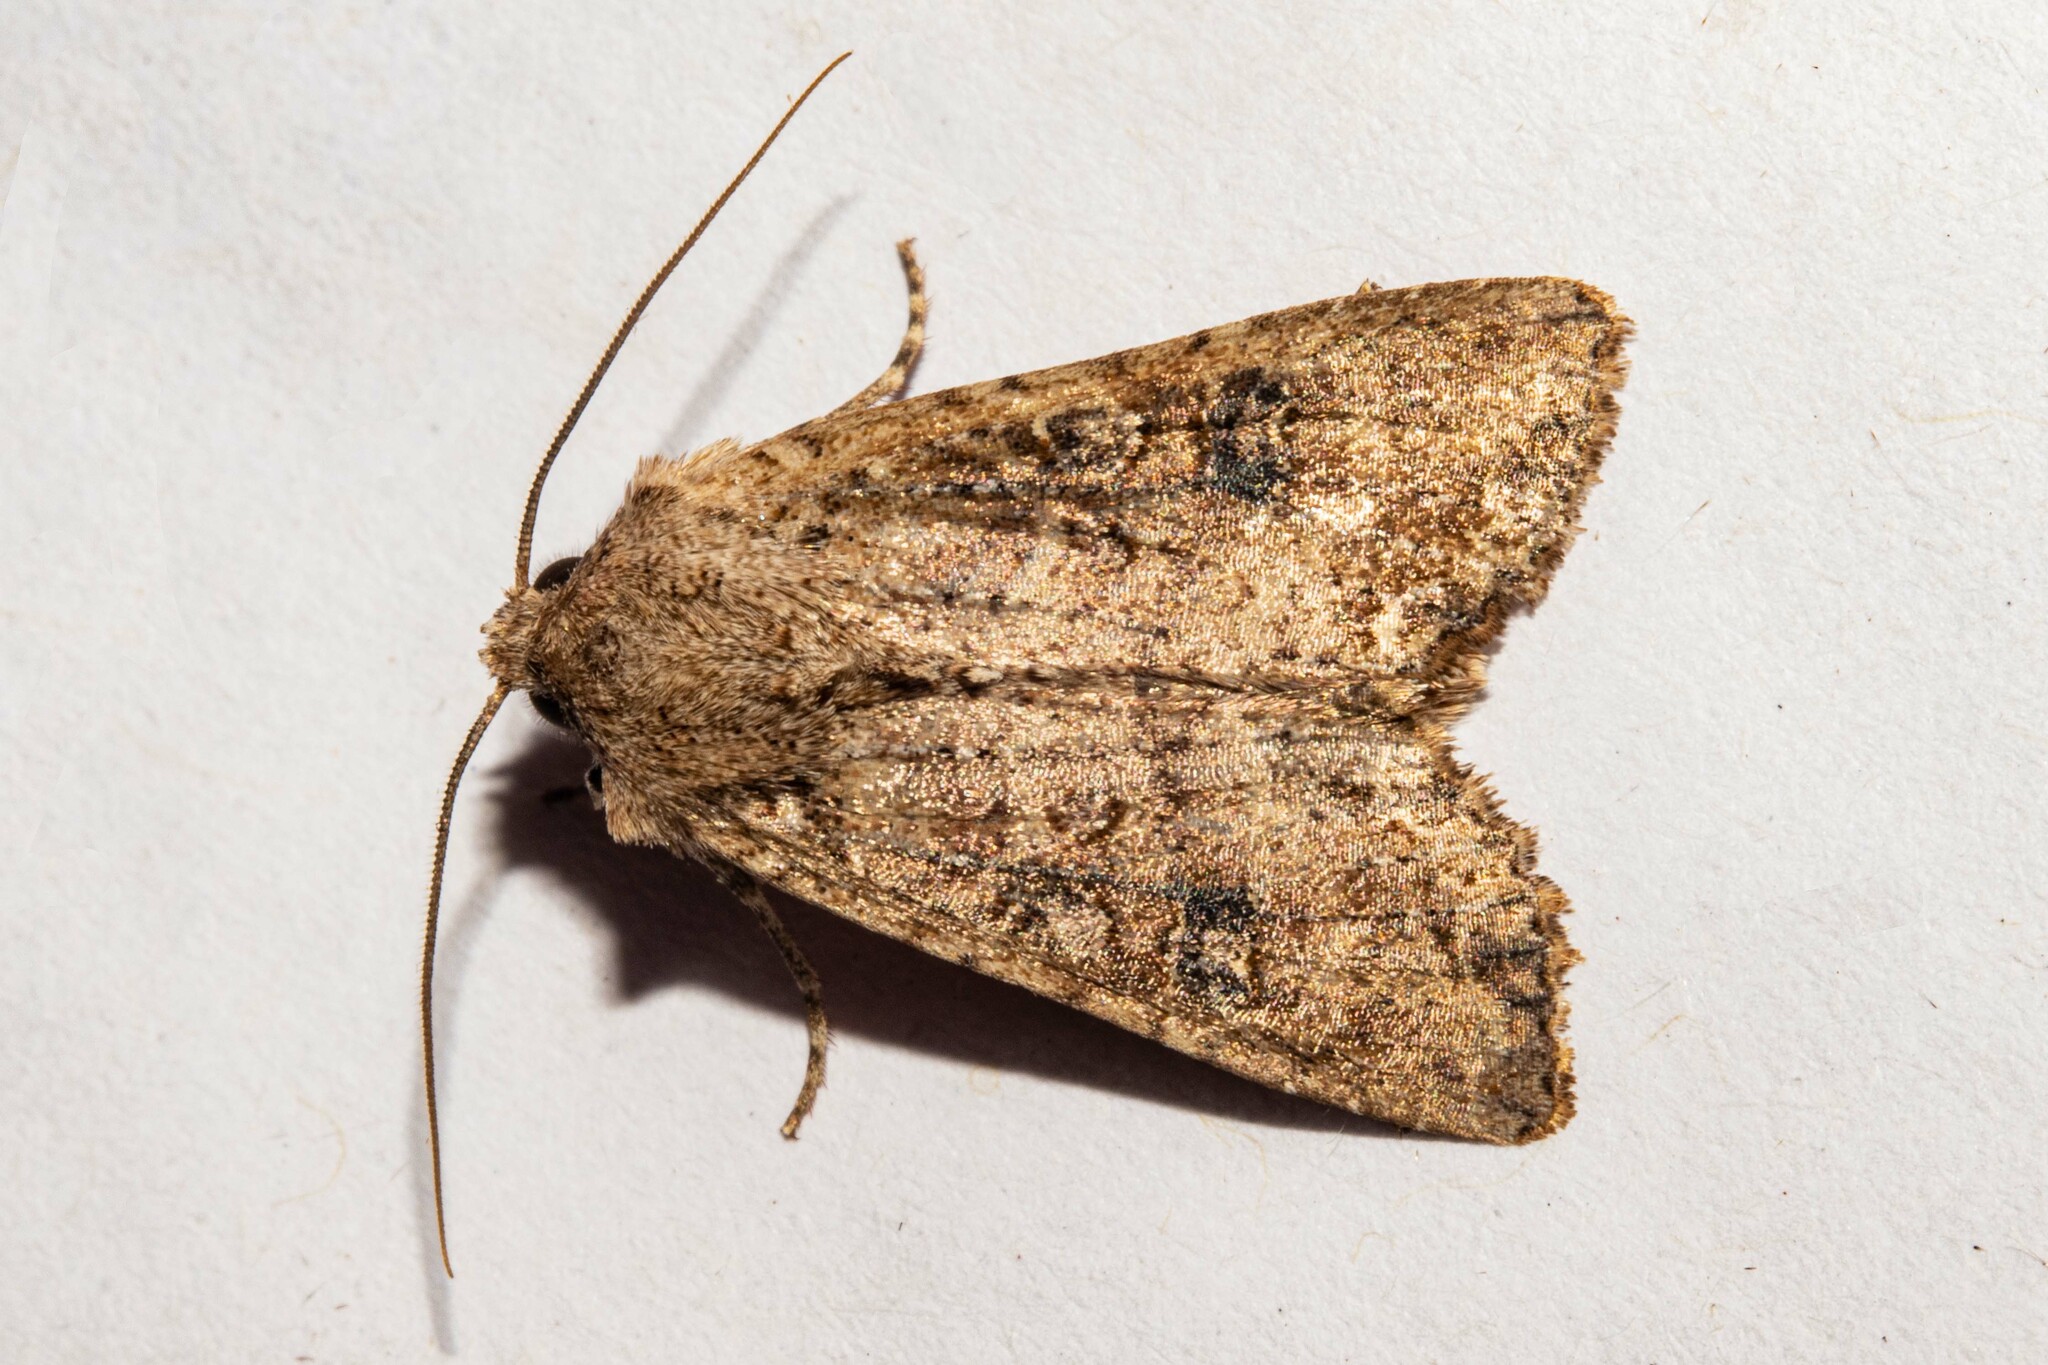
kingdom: Animalia
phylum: Arthropoda
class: Insecta
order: Lepidoptera
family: Noctuidae
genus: Ichneutica
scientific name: Ichneutica morosa
